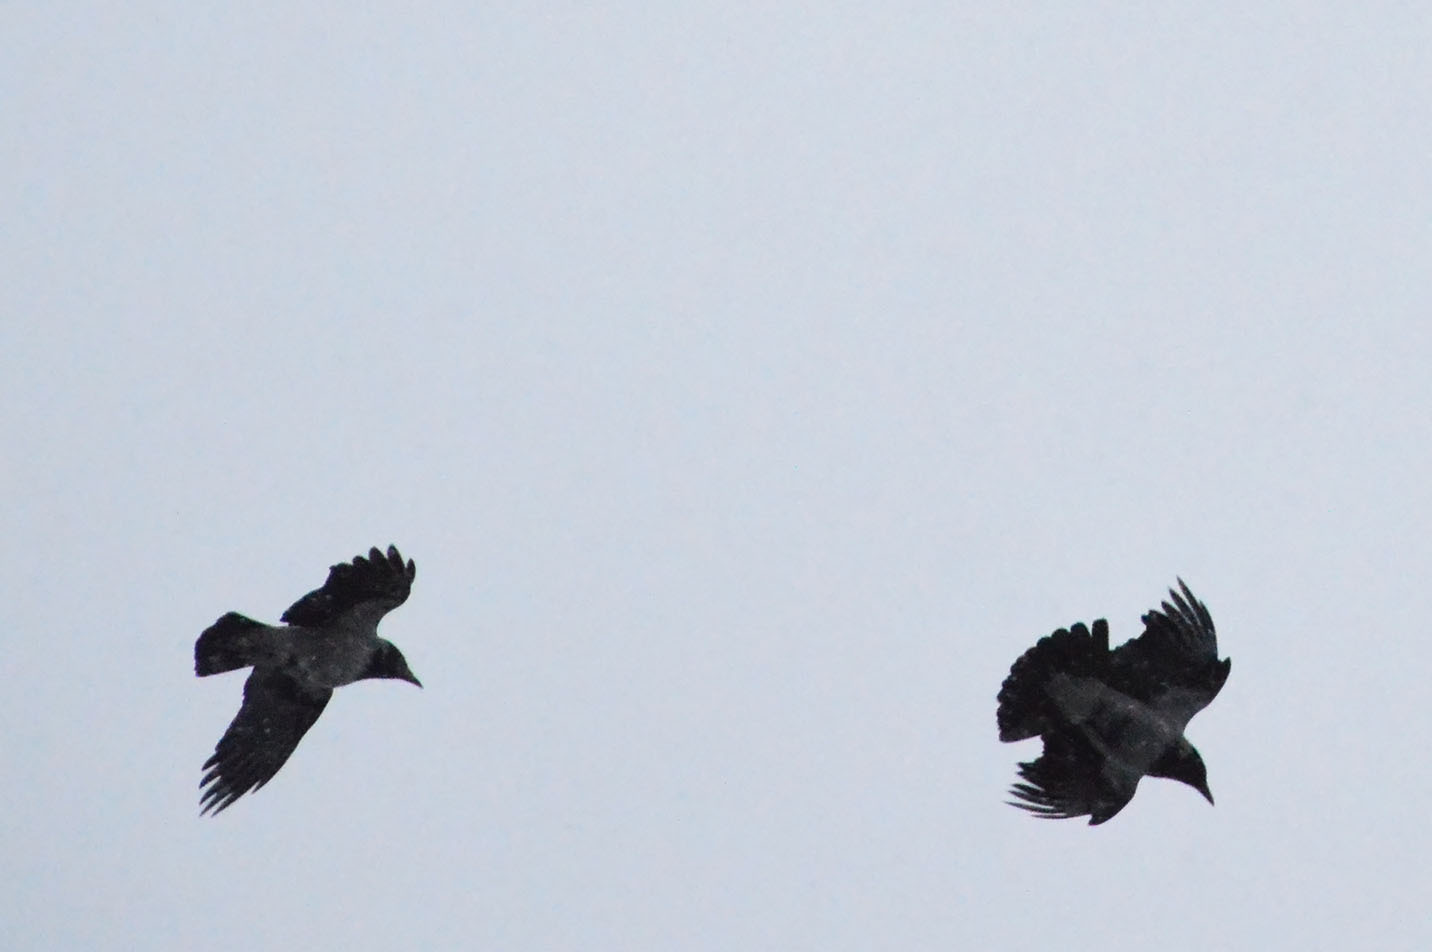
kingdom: Animalia
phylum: Chordata
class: Aves
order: Passeriformes
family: Corvidae
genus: Corvus
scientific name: Corvus cornix
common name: Hooded crow
